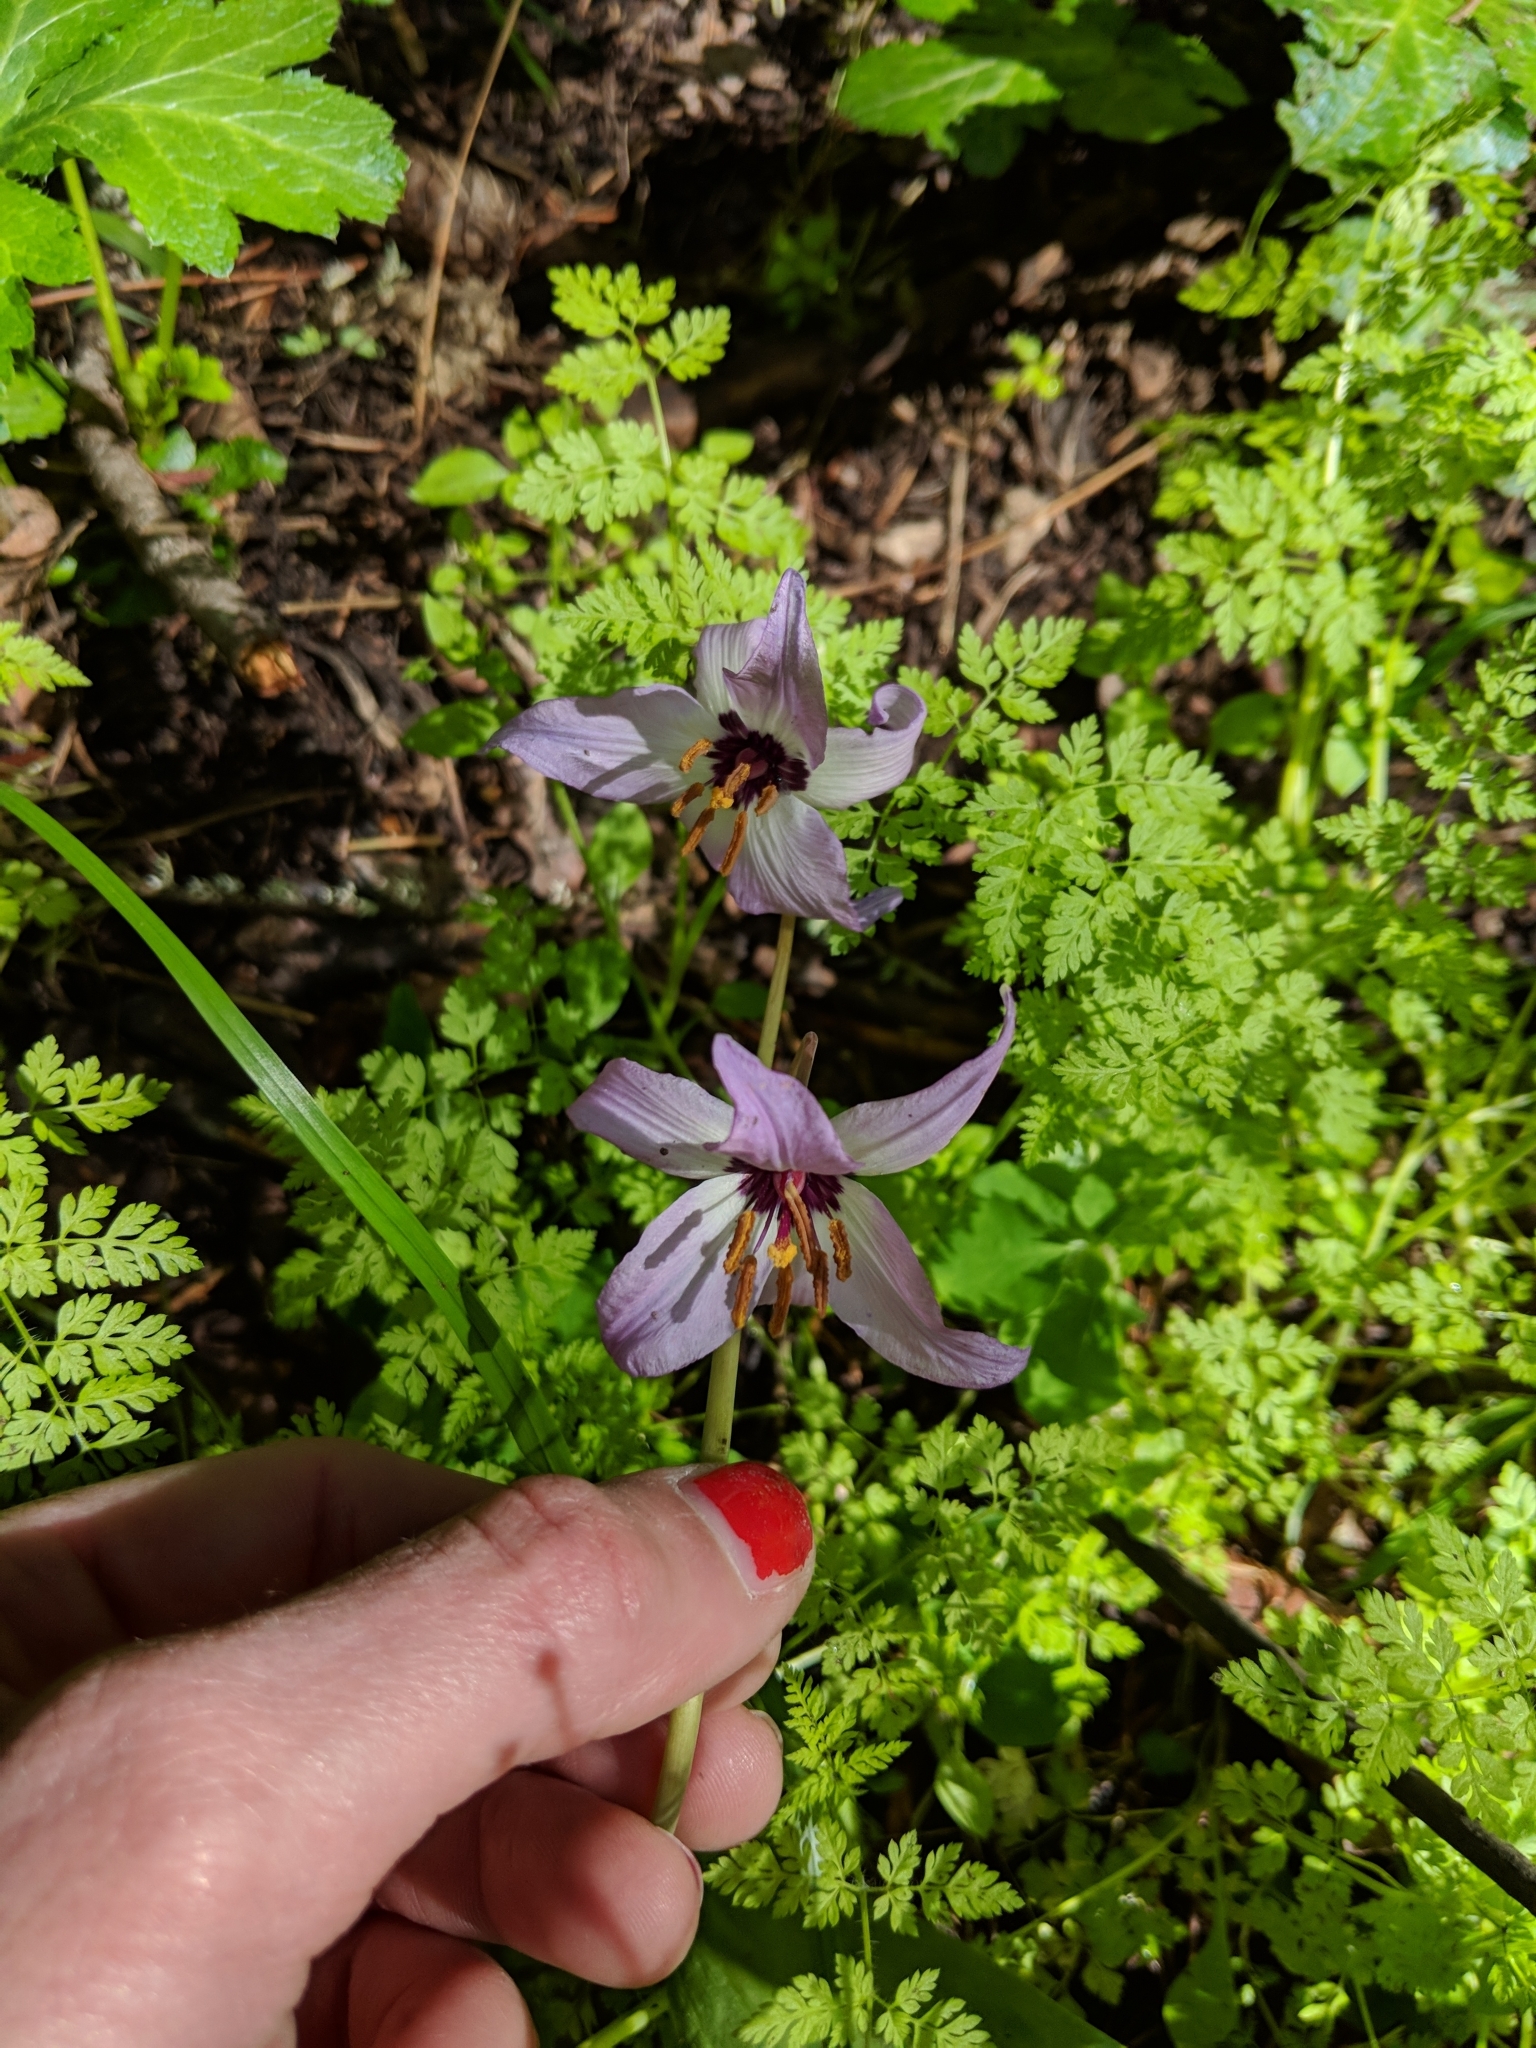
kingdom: Plantae
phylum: Tracheophyta
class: Liliopsida
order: Liliales
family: Liliaceae
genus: Erythronium
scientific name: Erythronium hendersonii
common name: Henderson's fawn-lily
